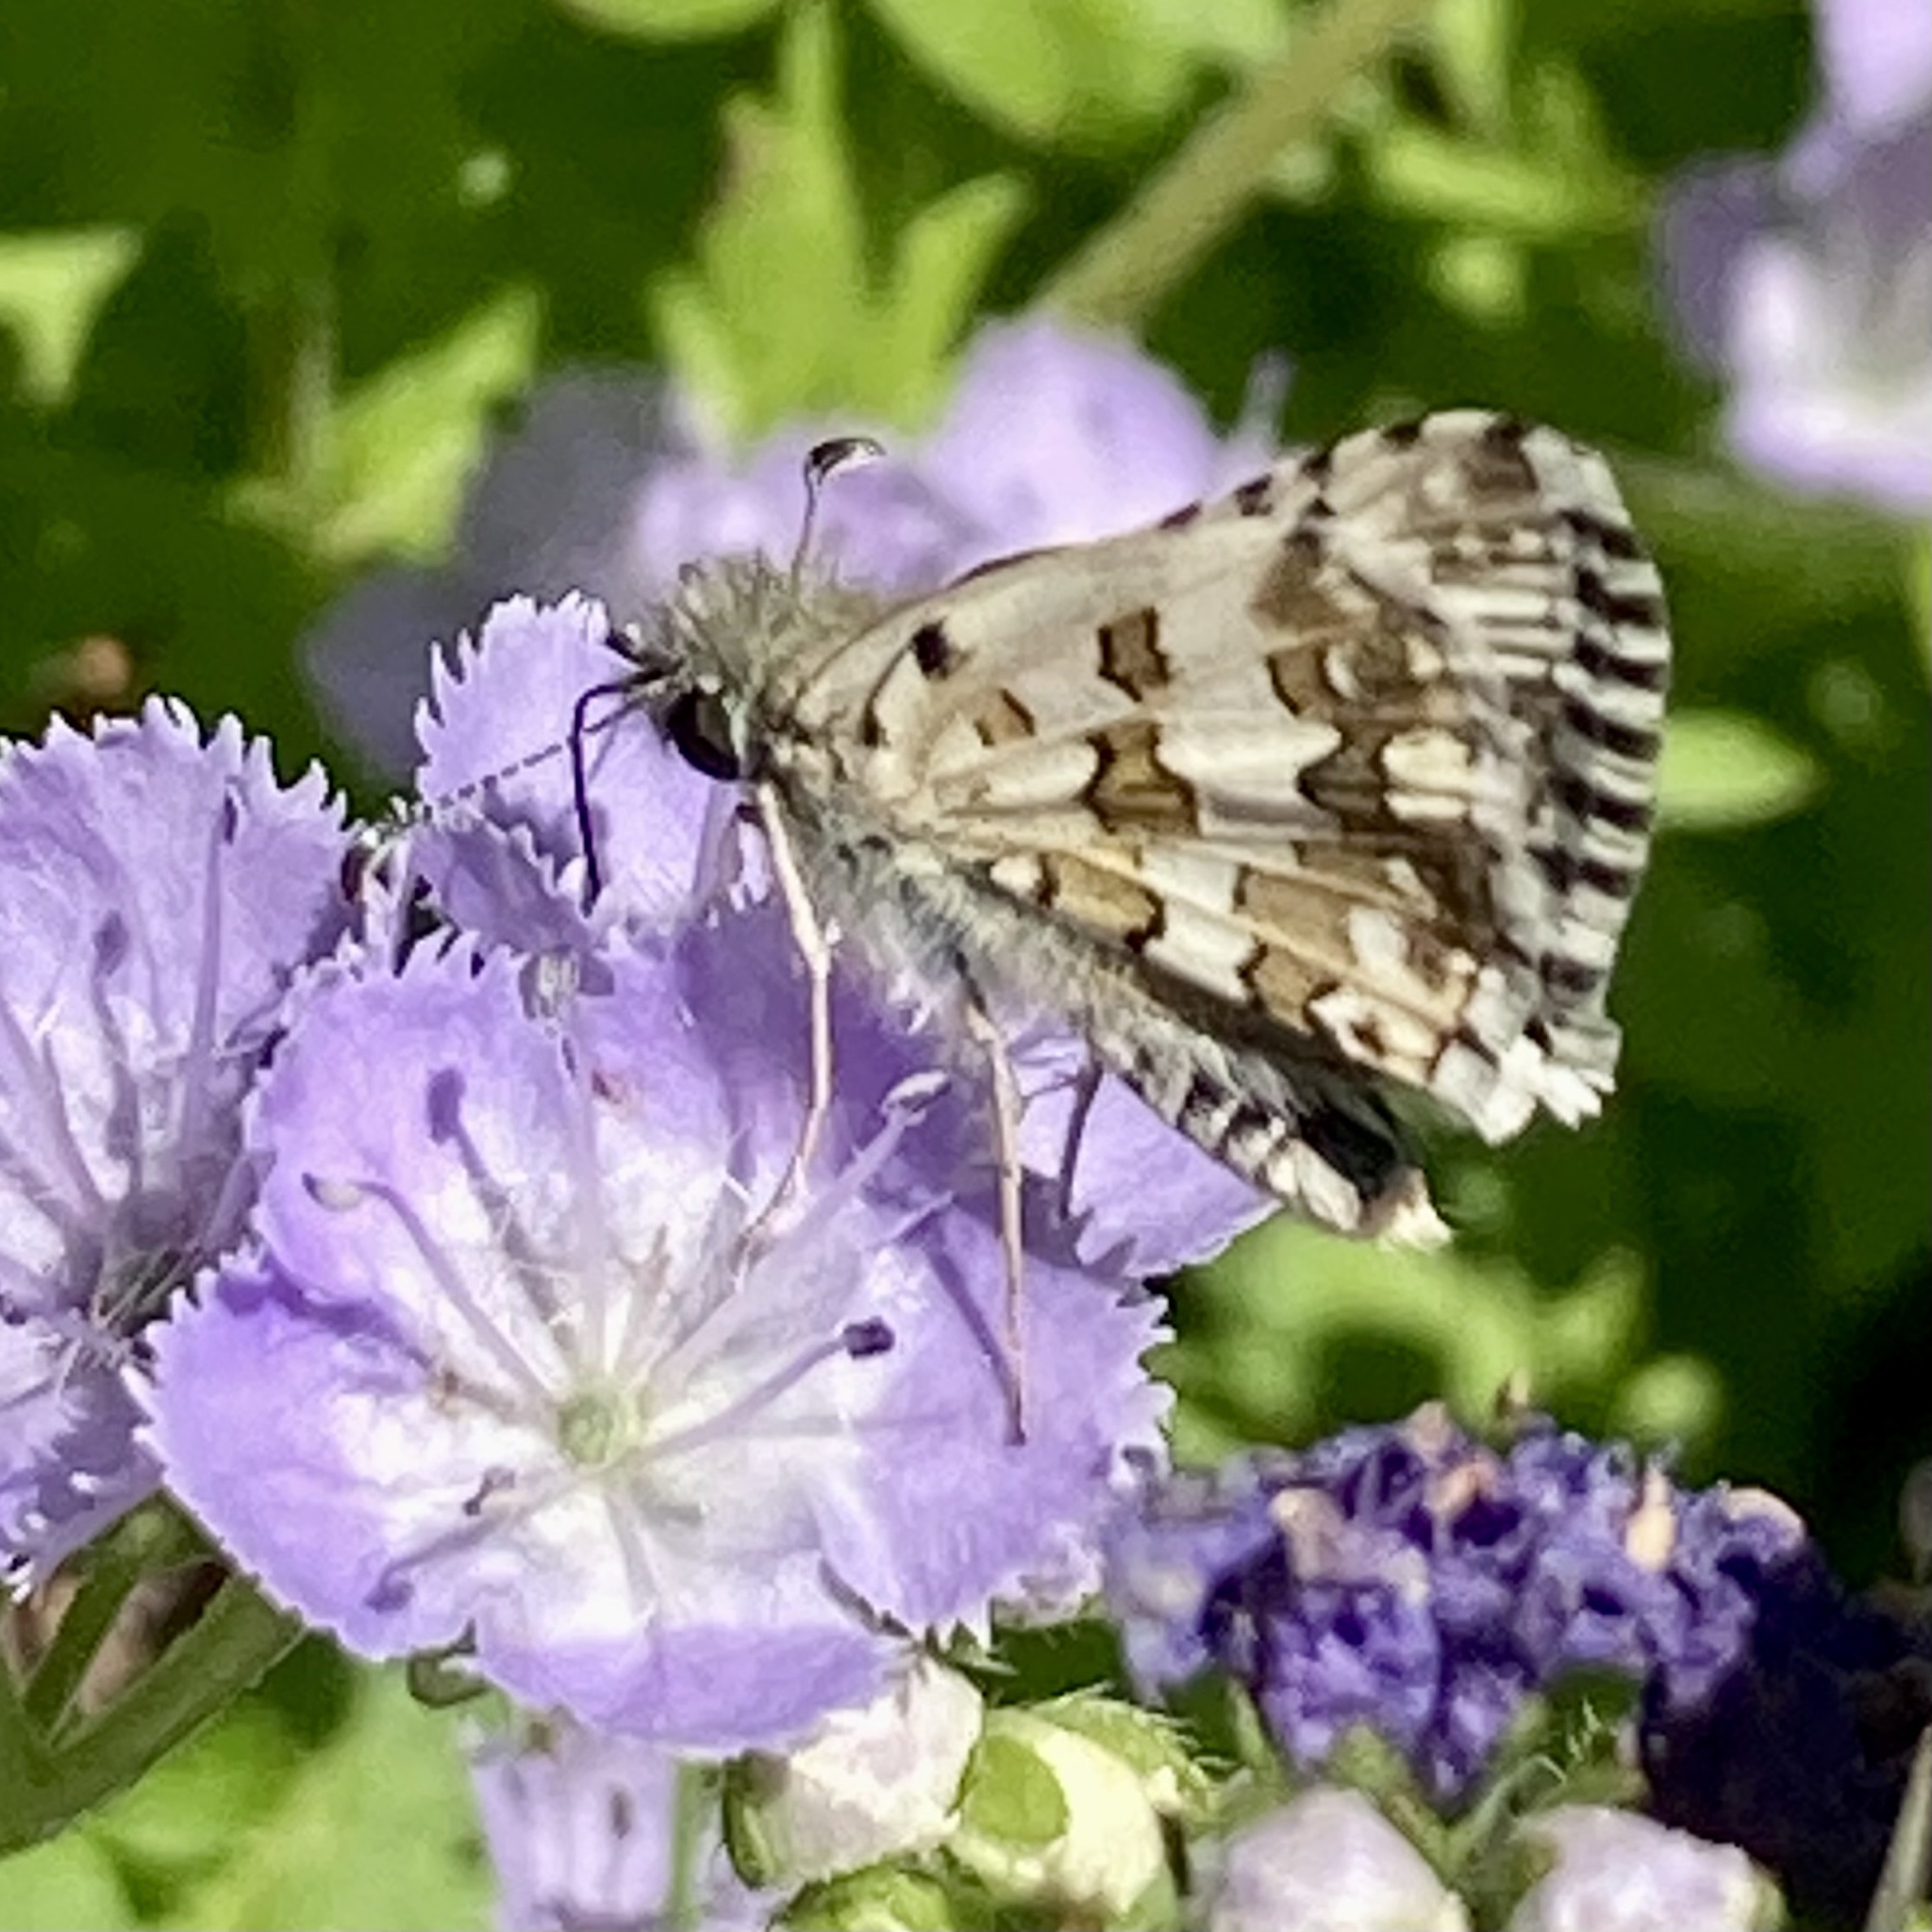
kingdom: Animalia
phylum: Arthropoda
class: Insecta
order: Lepidoptera
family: Hesperiidae
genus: Burnsius
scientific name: Burnsius communis
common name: Common checkered-skipper
